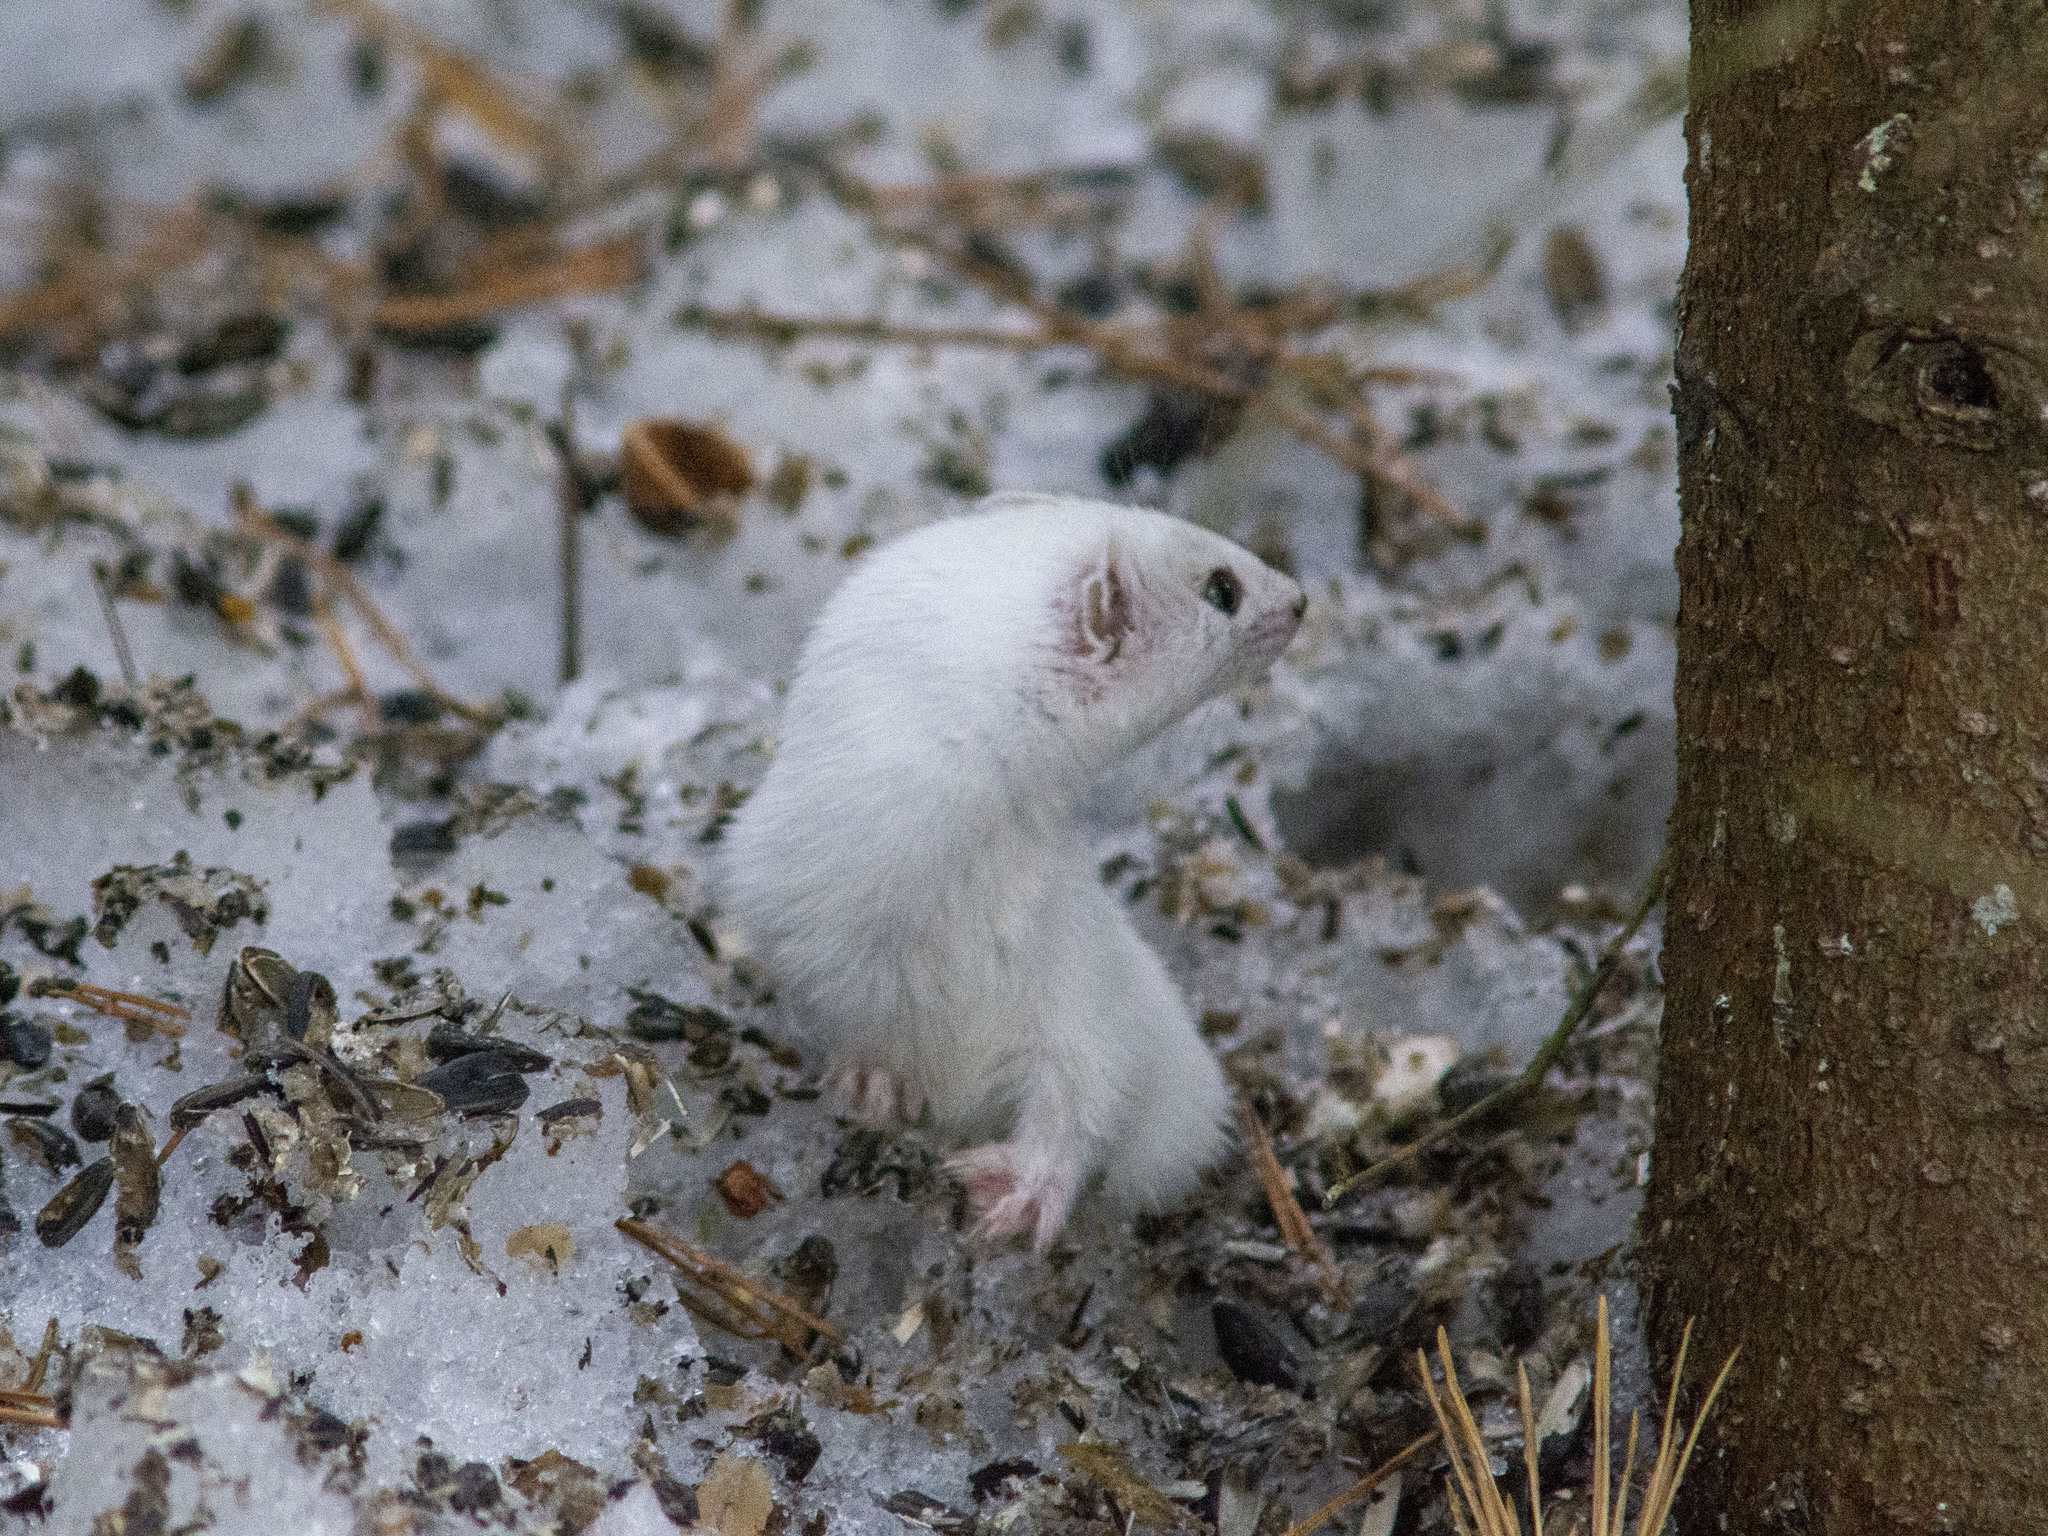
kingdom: Animalia
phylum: Chordata
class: Mammalia
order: Carnivora
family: Mustelidae
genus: Mustela
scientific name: Mustela nivalis
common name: Least weasel
